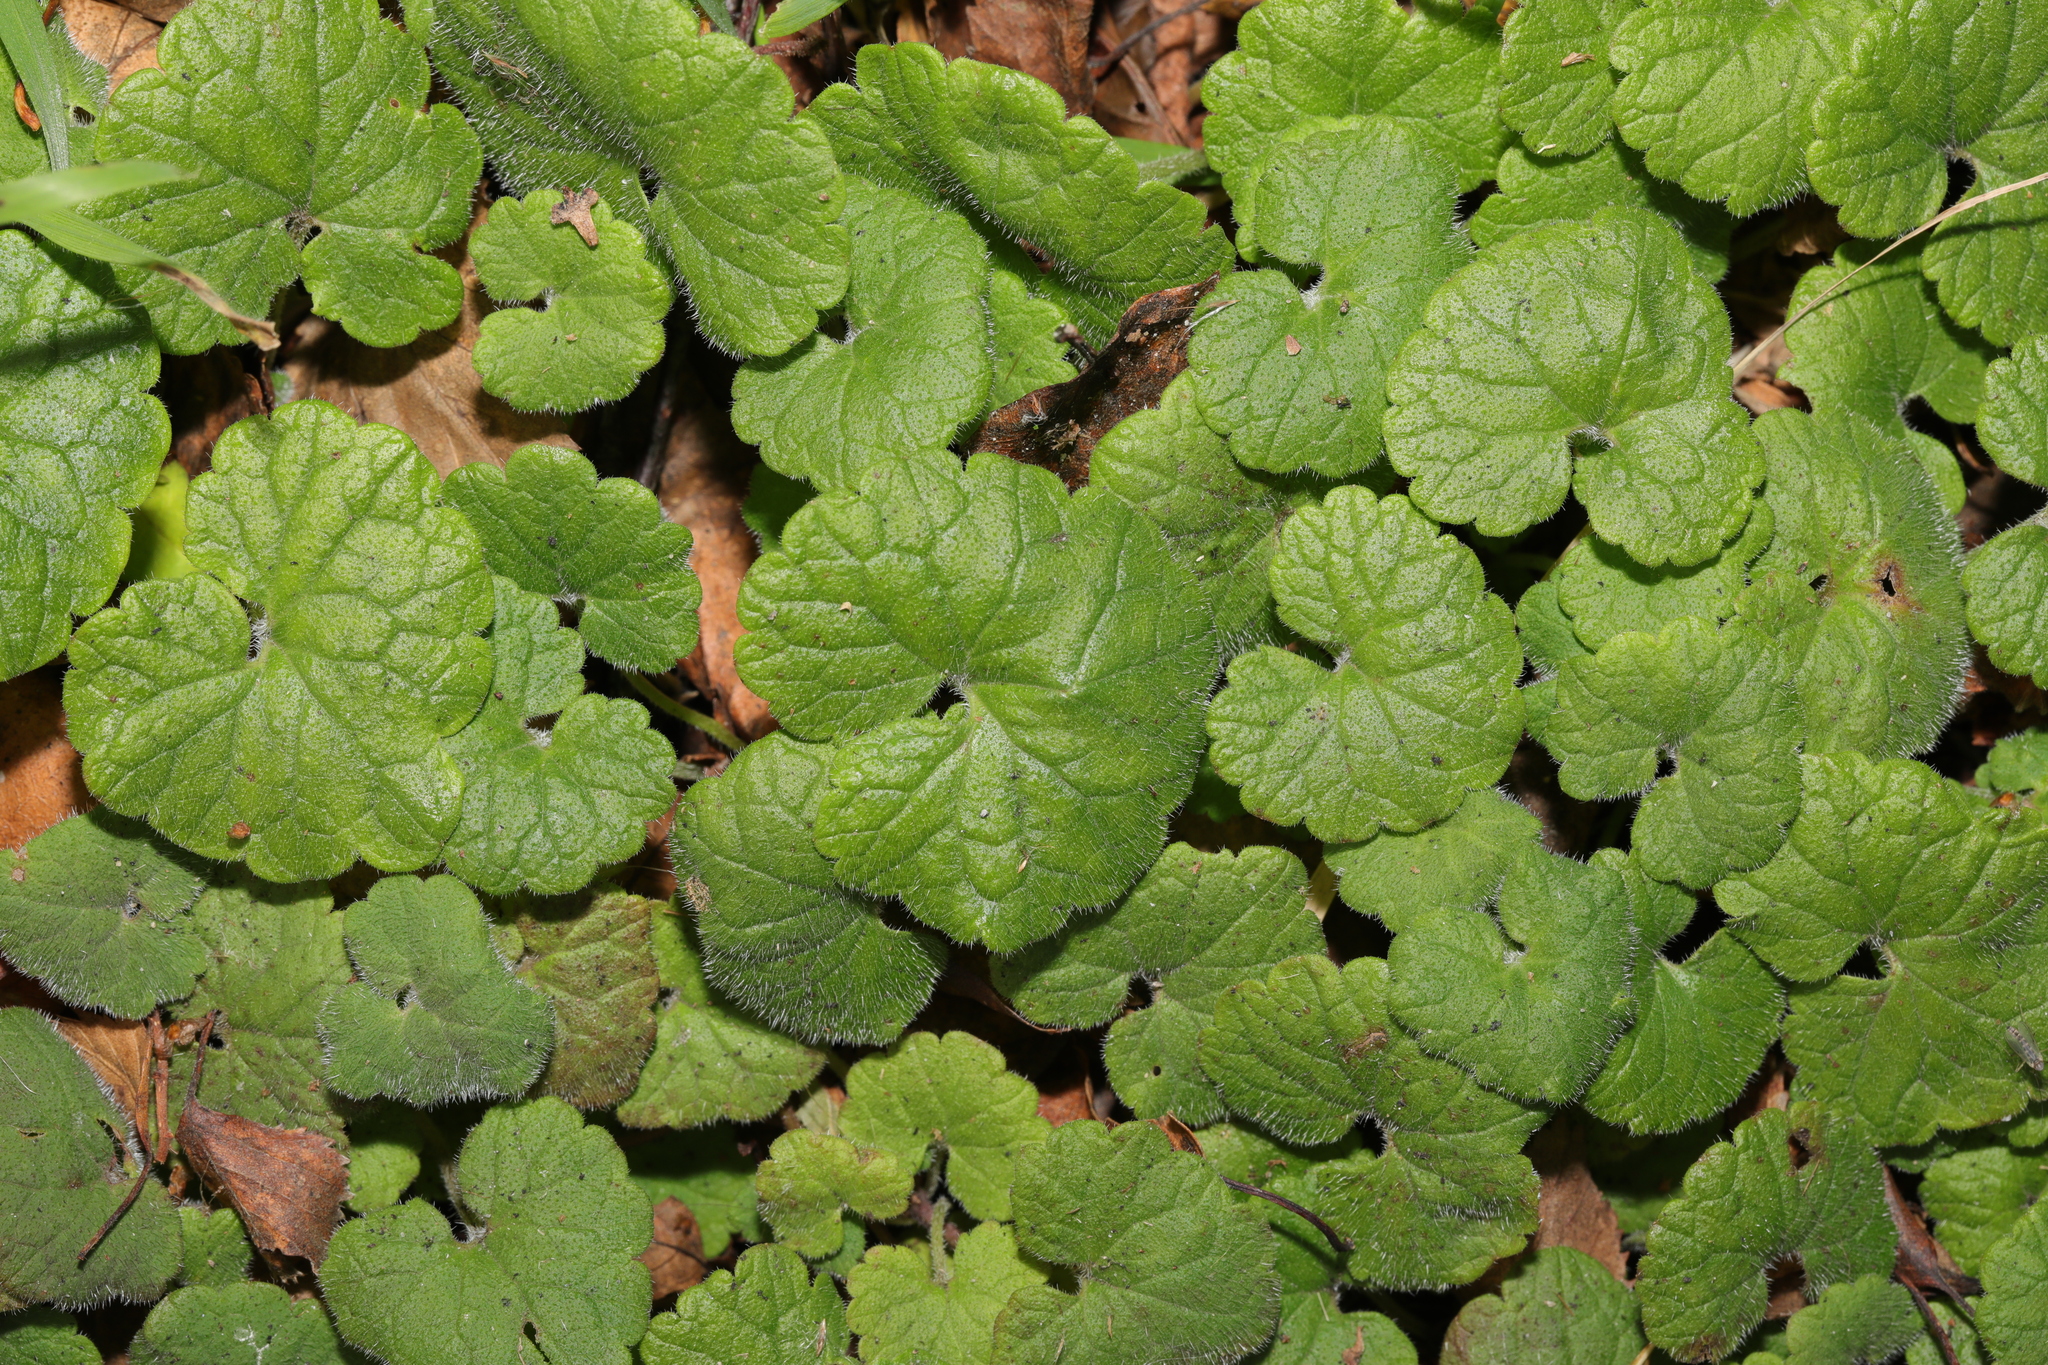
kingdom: Plantae
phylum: Tracheophyta
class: Magnoliopsida
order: Lamiales
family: Lamiaceae
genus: Glechoma
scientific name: Glechoma hederacea
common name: Ground ivy
